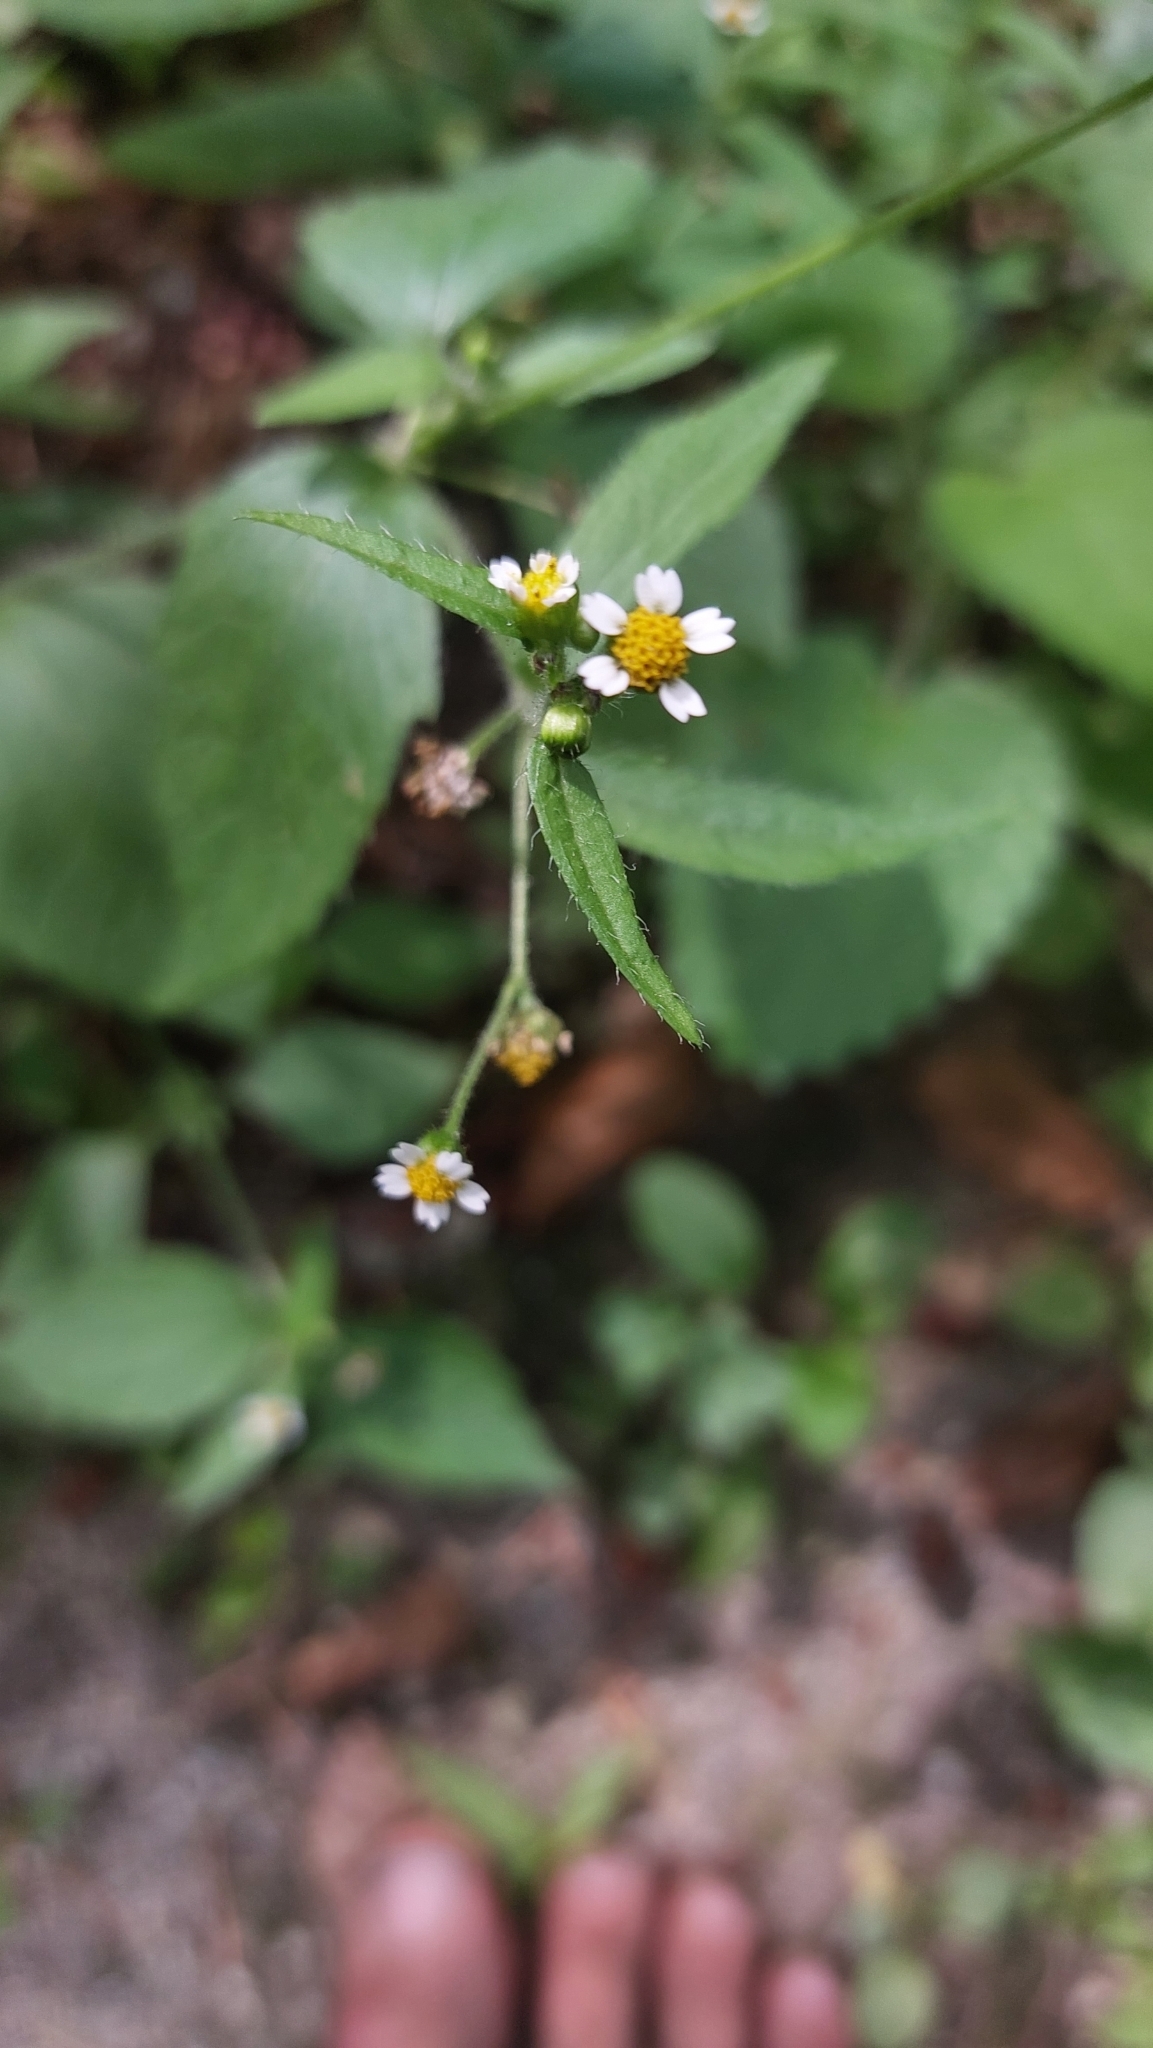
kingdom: Plantae
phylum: Tracheophyta
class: Magnoliopsida
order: Asterales
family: Asteraceae
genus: Galinsoga
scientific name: Galinsoga quadriradiata
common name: Shaggy soldier
